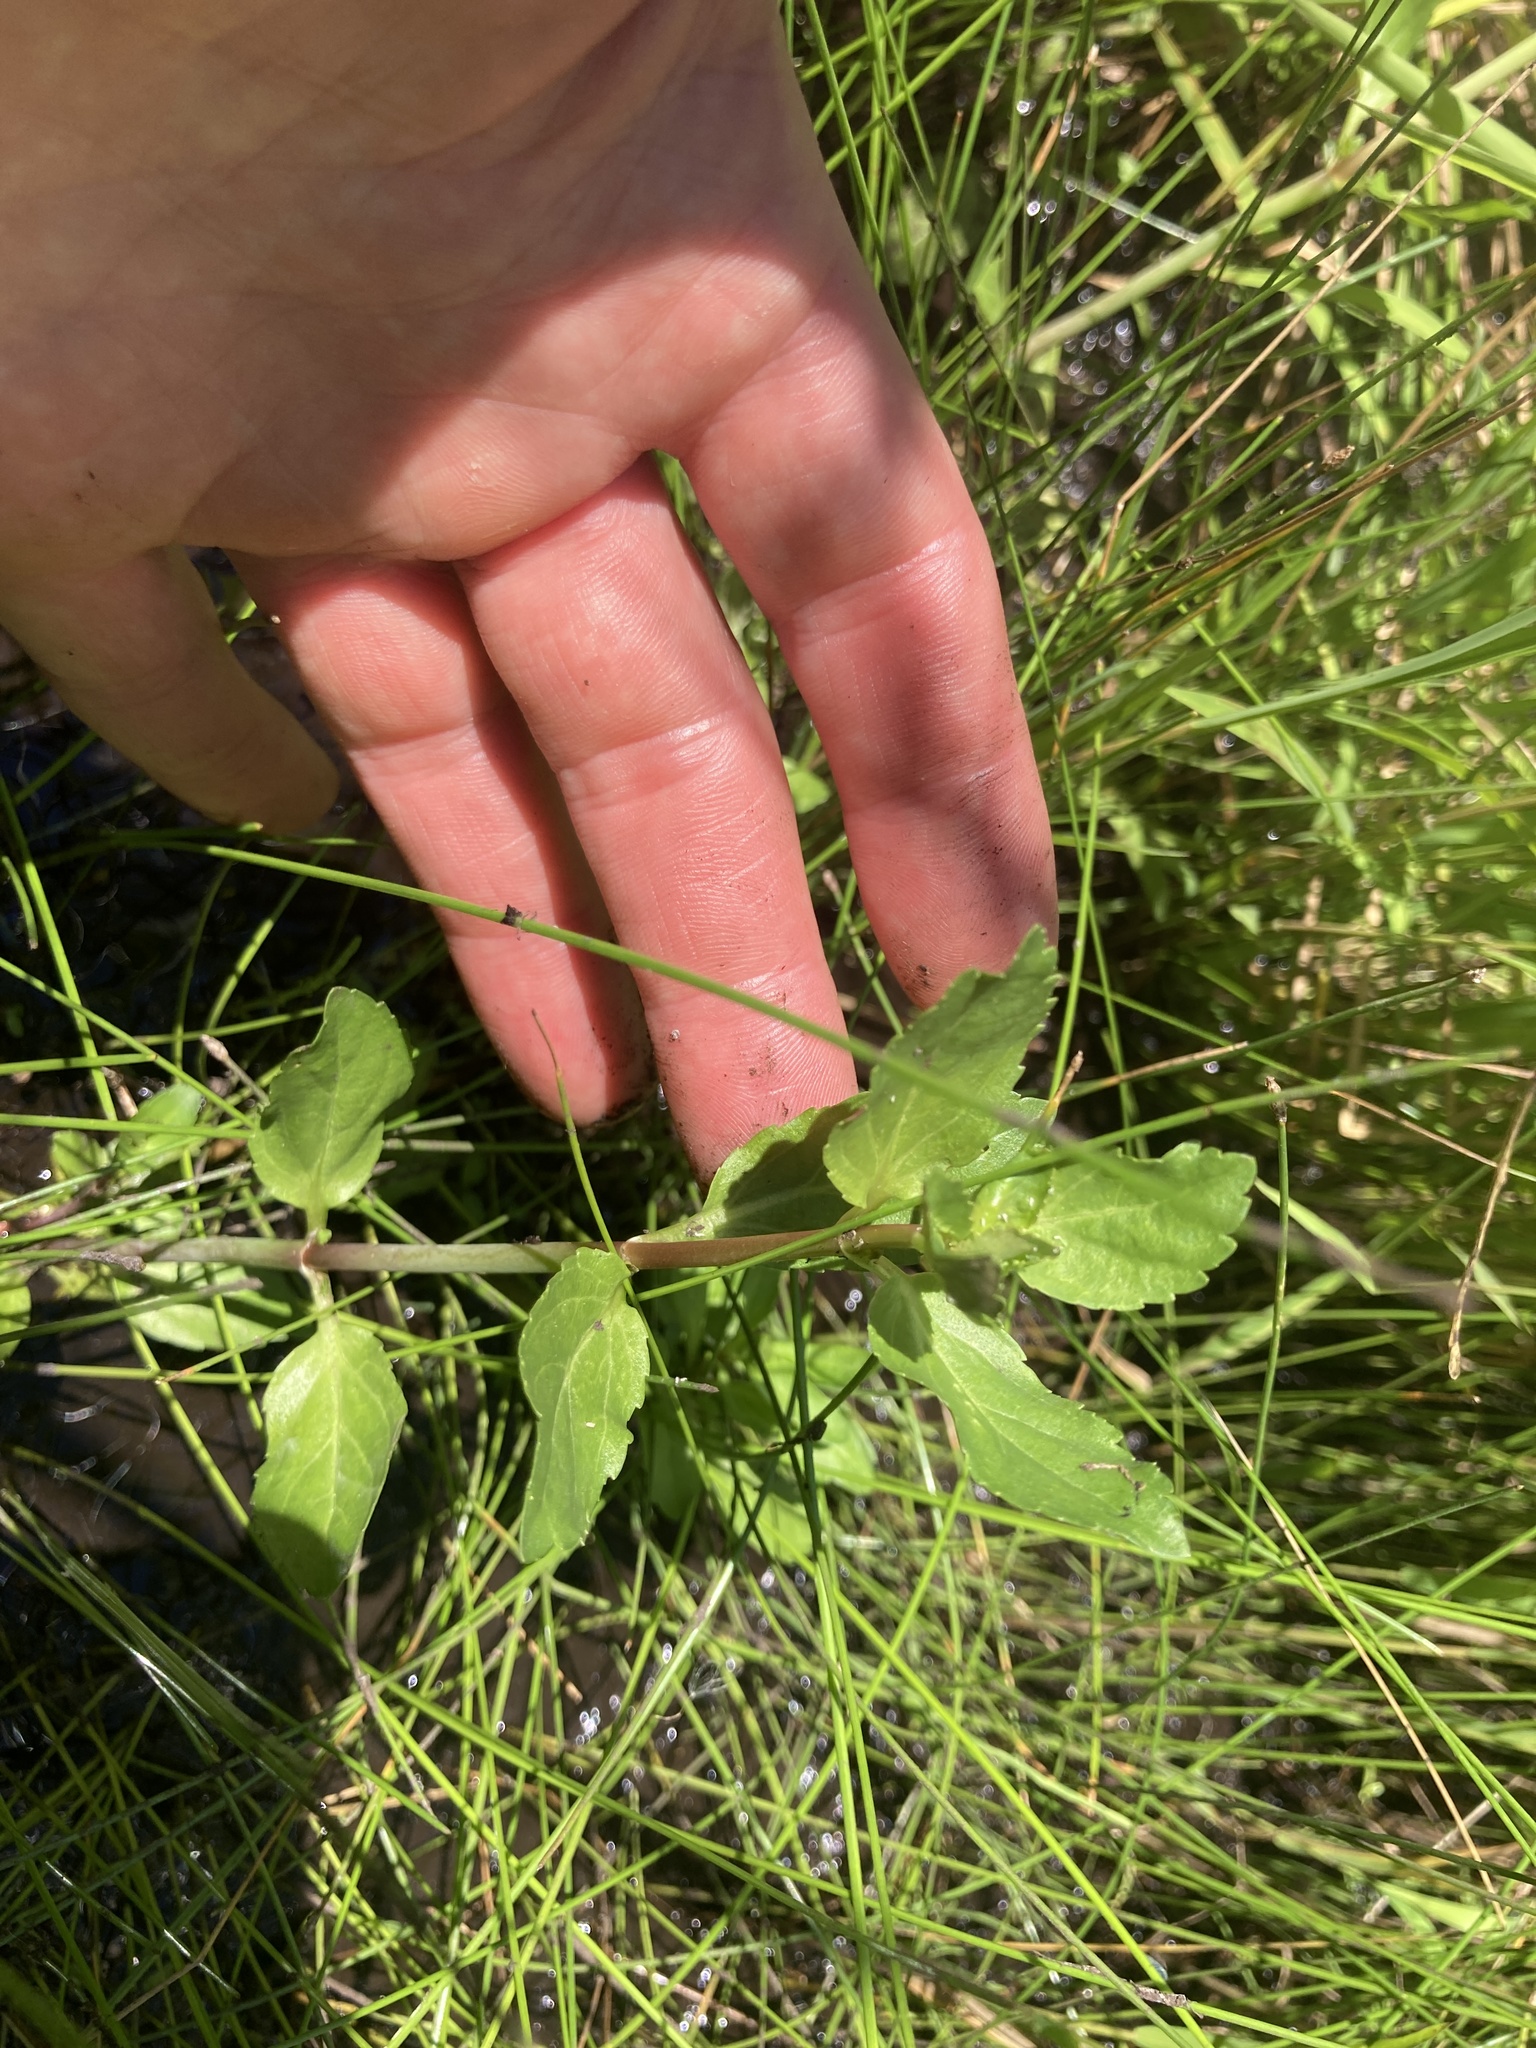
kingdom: Plantae
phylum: Tracheophyta
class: Magnoliopsida
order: Lamiales
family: Plantaginaceae
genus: Veronica
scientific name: Veronica americana
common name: American brooklime
